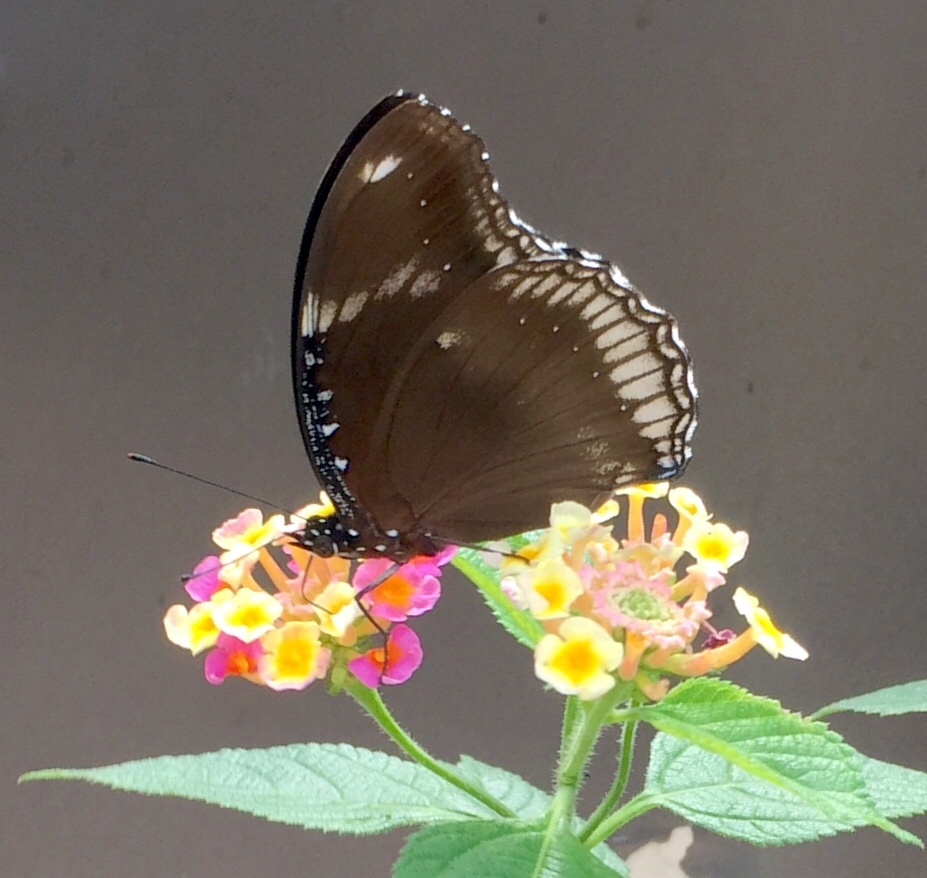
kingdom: Animalia
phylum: Arthropoda
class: Insecta
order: Lepidoptera
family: Nymphalidae
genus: Hypolimnas
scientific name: Hypolimnas bolina
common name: Great eggfly
